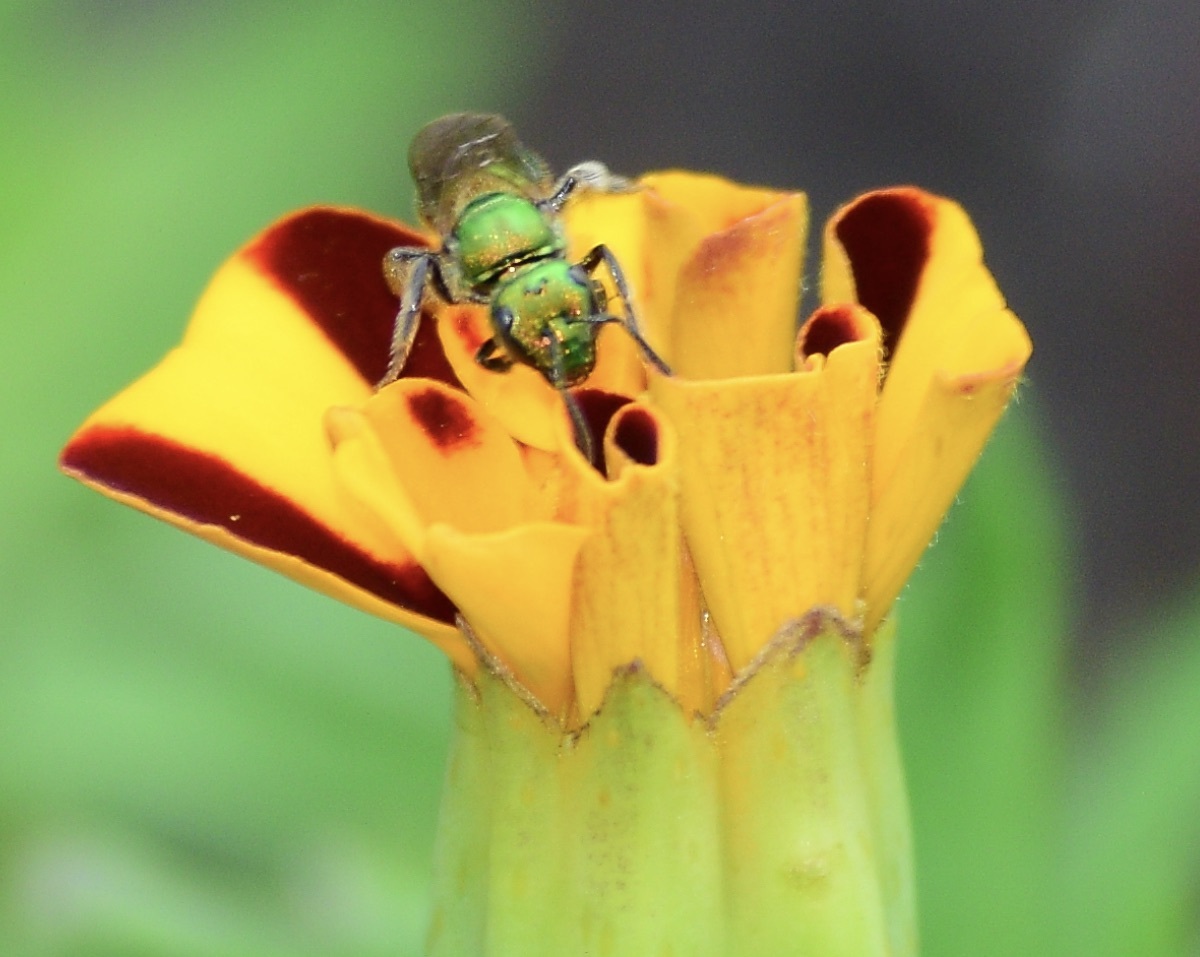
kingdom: Animalia
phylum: Arthropoda
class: Insecta
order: Hymenoptera
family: Halictidae
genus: Augochlora
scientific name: Augochlora pura
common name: Pure green sweat bee
